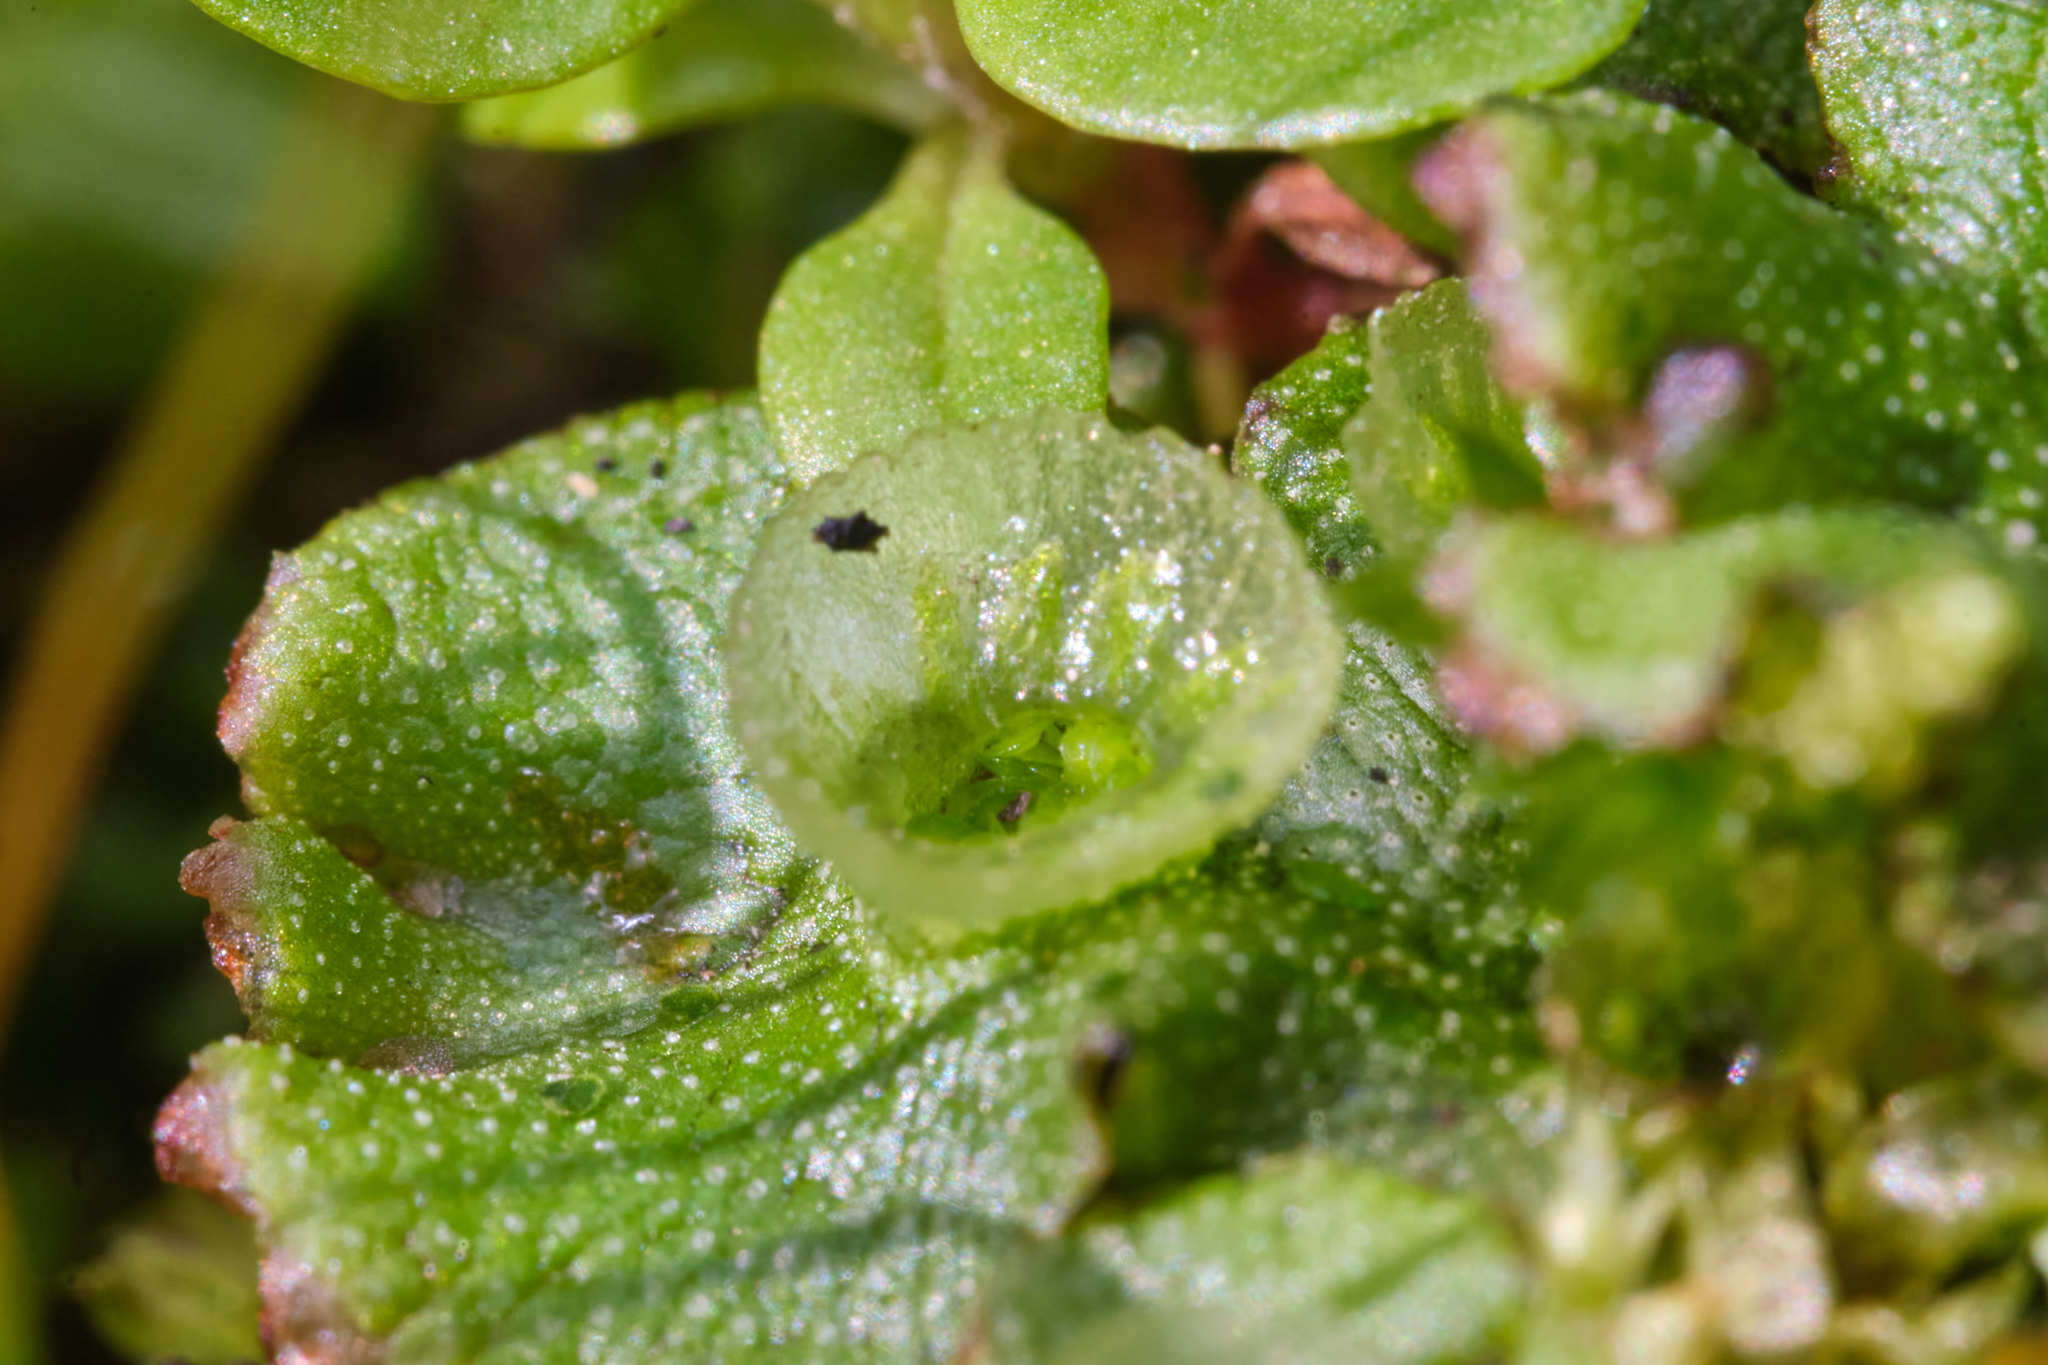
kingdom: Plantae
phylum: Marchantiophyta
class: Marchantiopsida
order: Marchantiales
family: Marchantiaceae
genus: Marchantia
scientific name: Marchantia polymorpha
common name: Common liverwort
